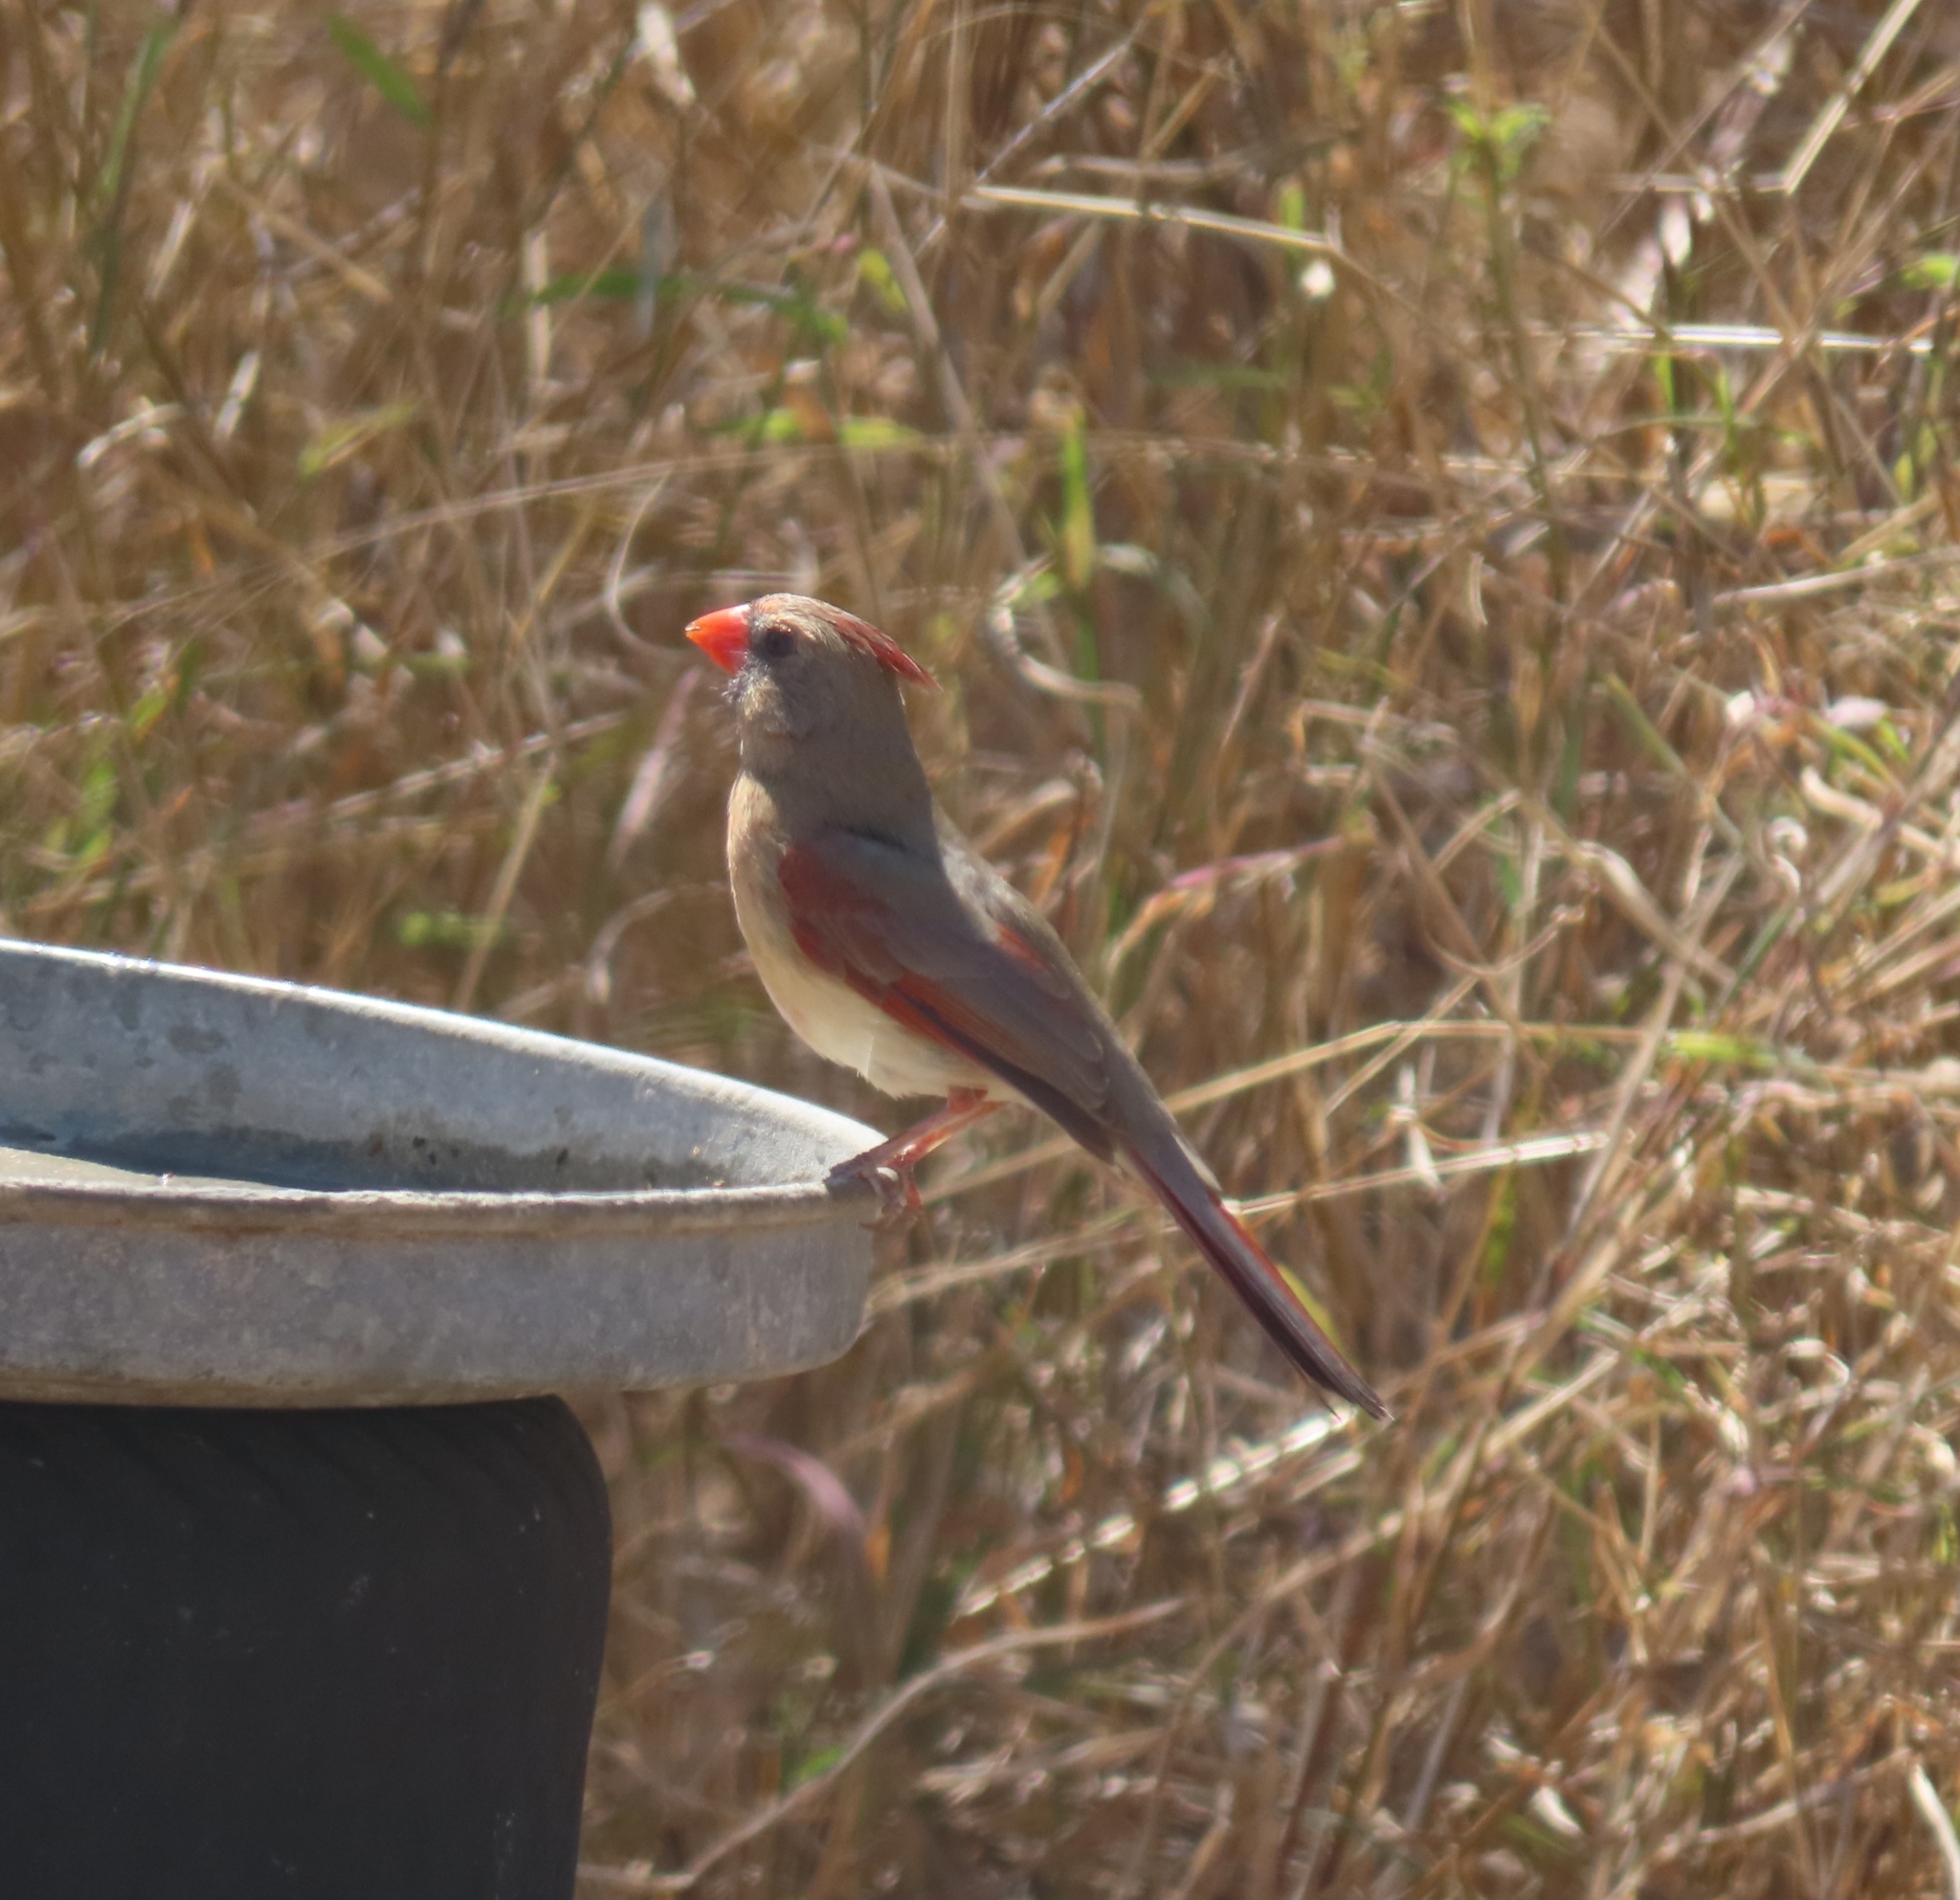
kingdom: Animalia
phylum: Chordata
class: Aves
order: Passeriformes
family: Cardinalidae
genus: Cardinalis
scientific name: Cardinalis cardinalis
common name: Northern cardinal
